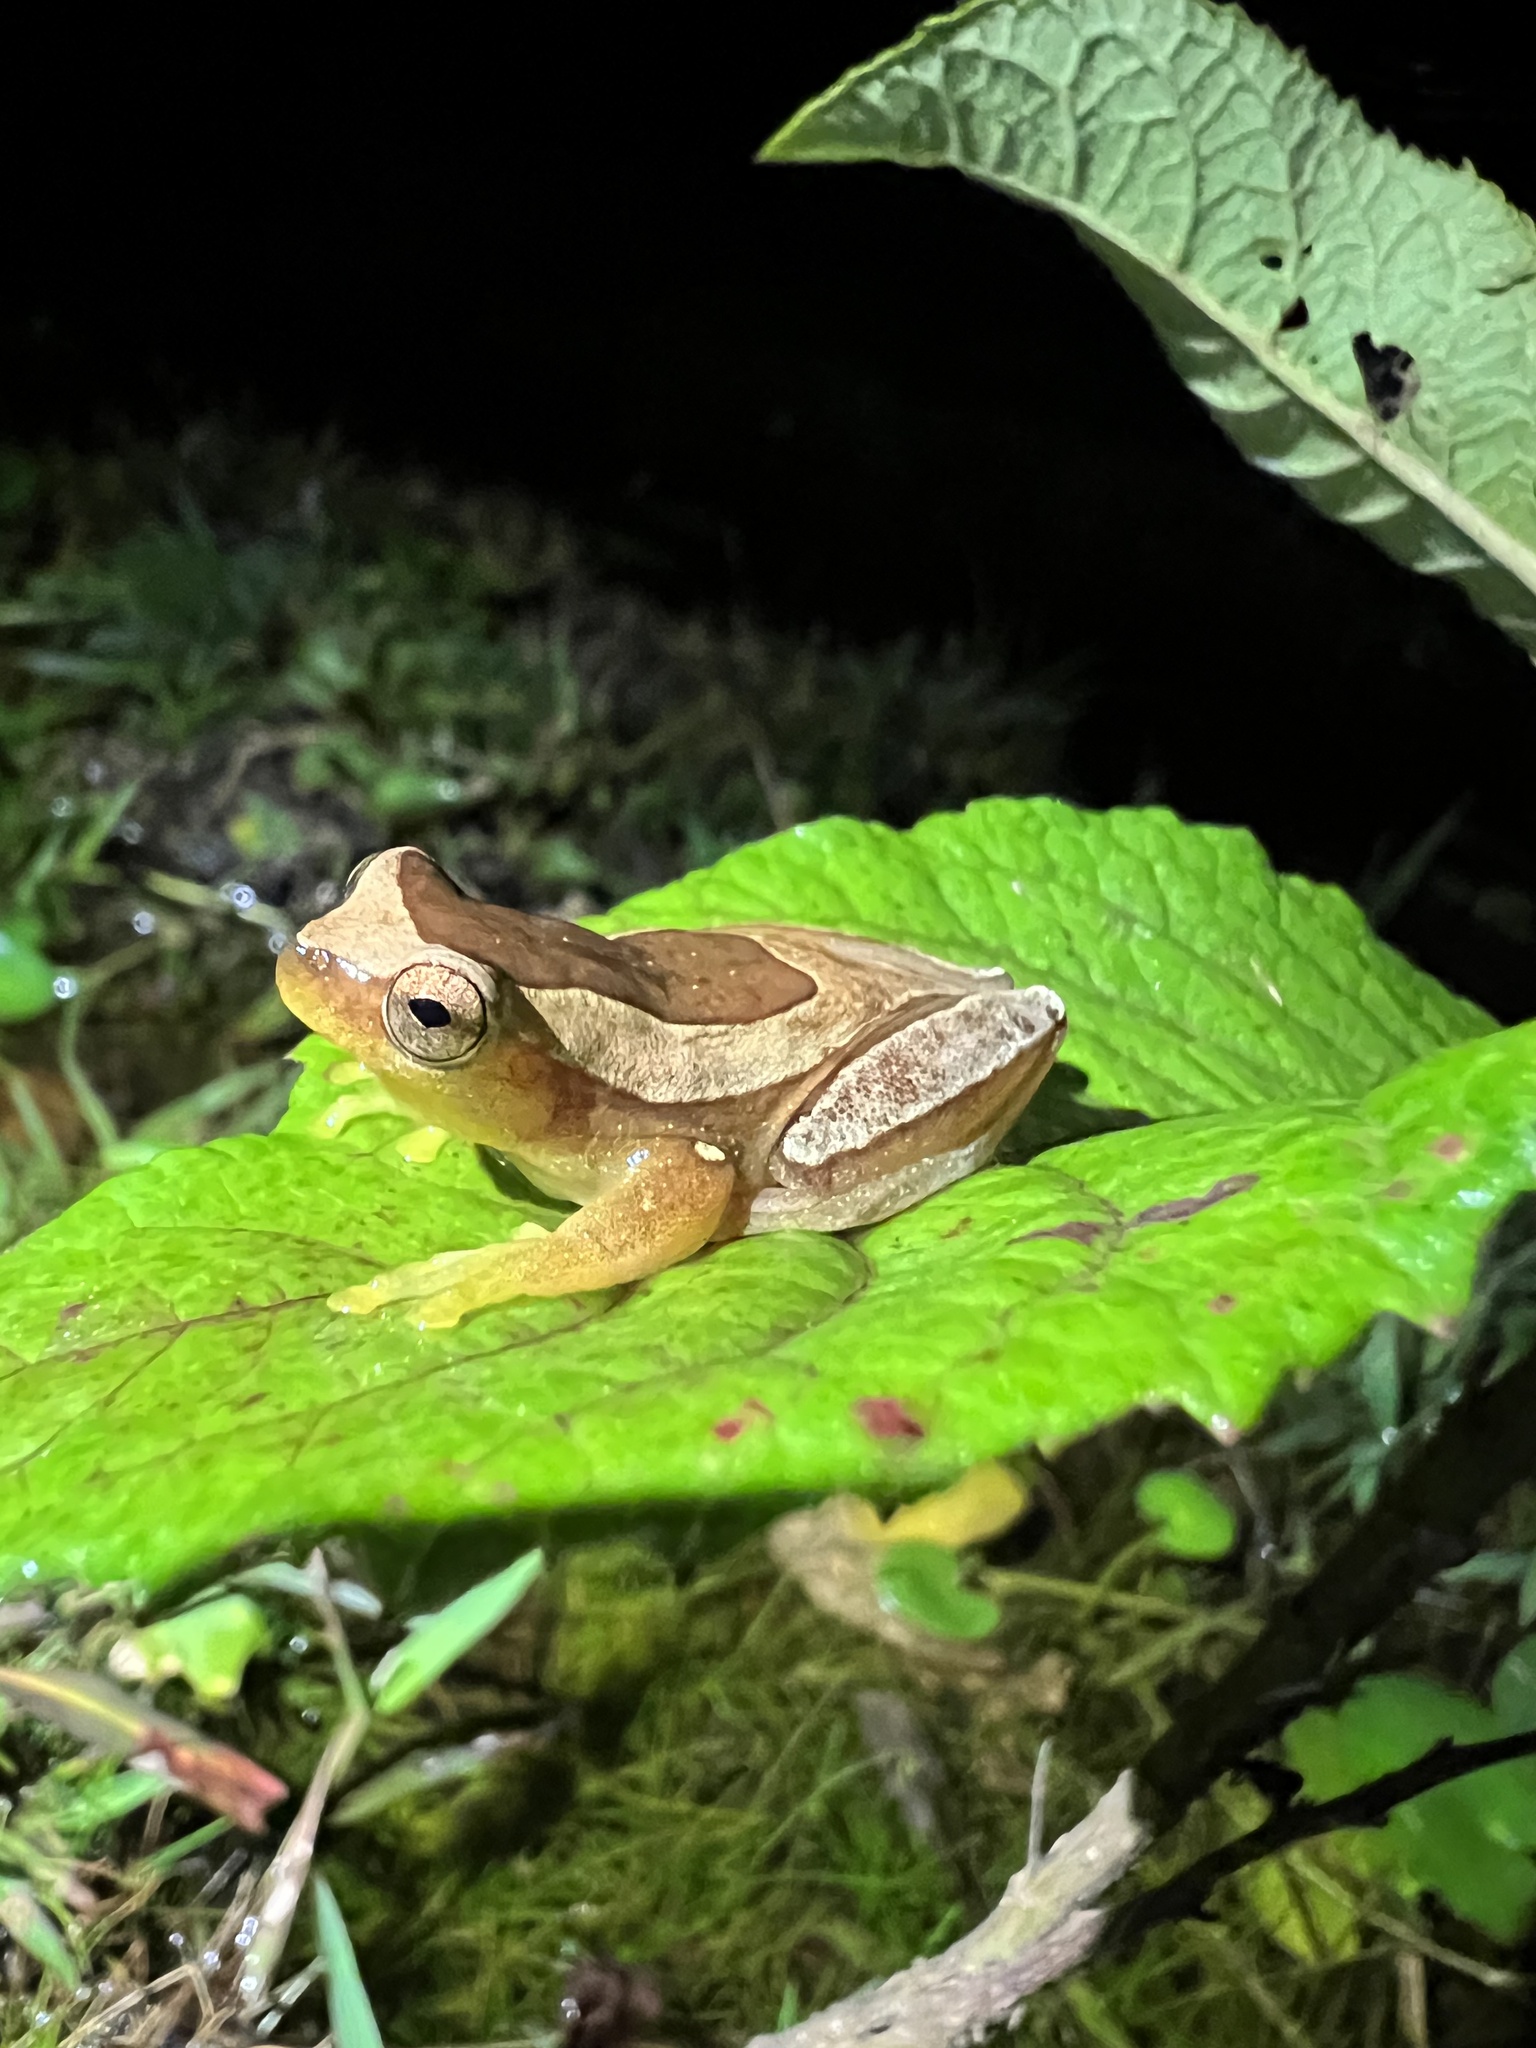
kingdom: Animalia
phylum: Chordata
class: Amphibia
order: Anura
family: Hylidae
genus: Dendropsophus
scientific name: Dendropsophus elegans
